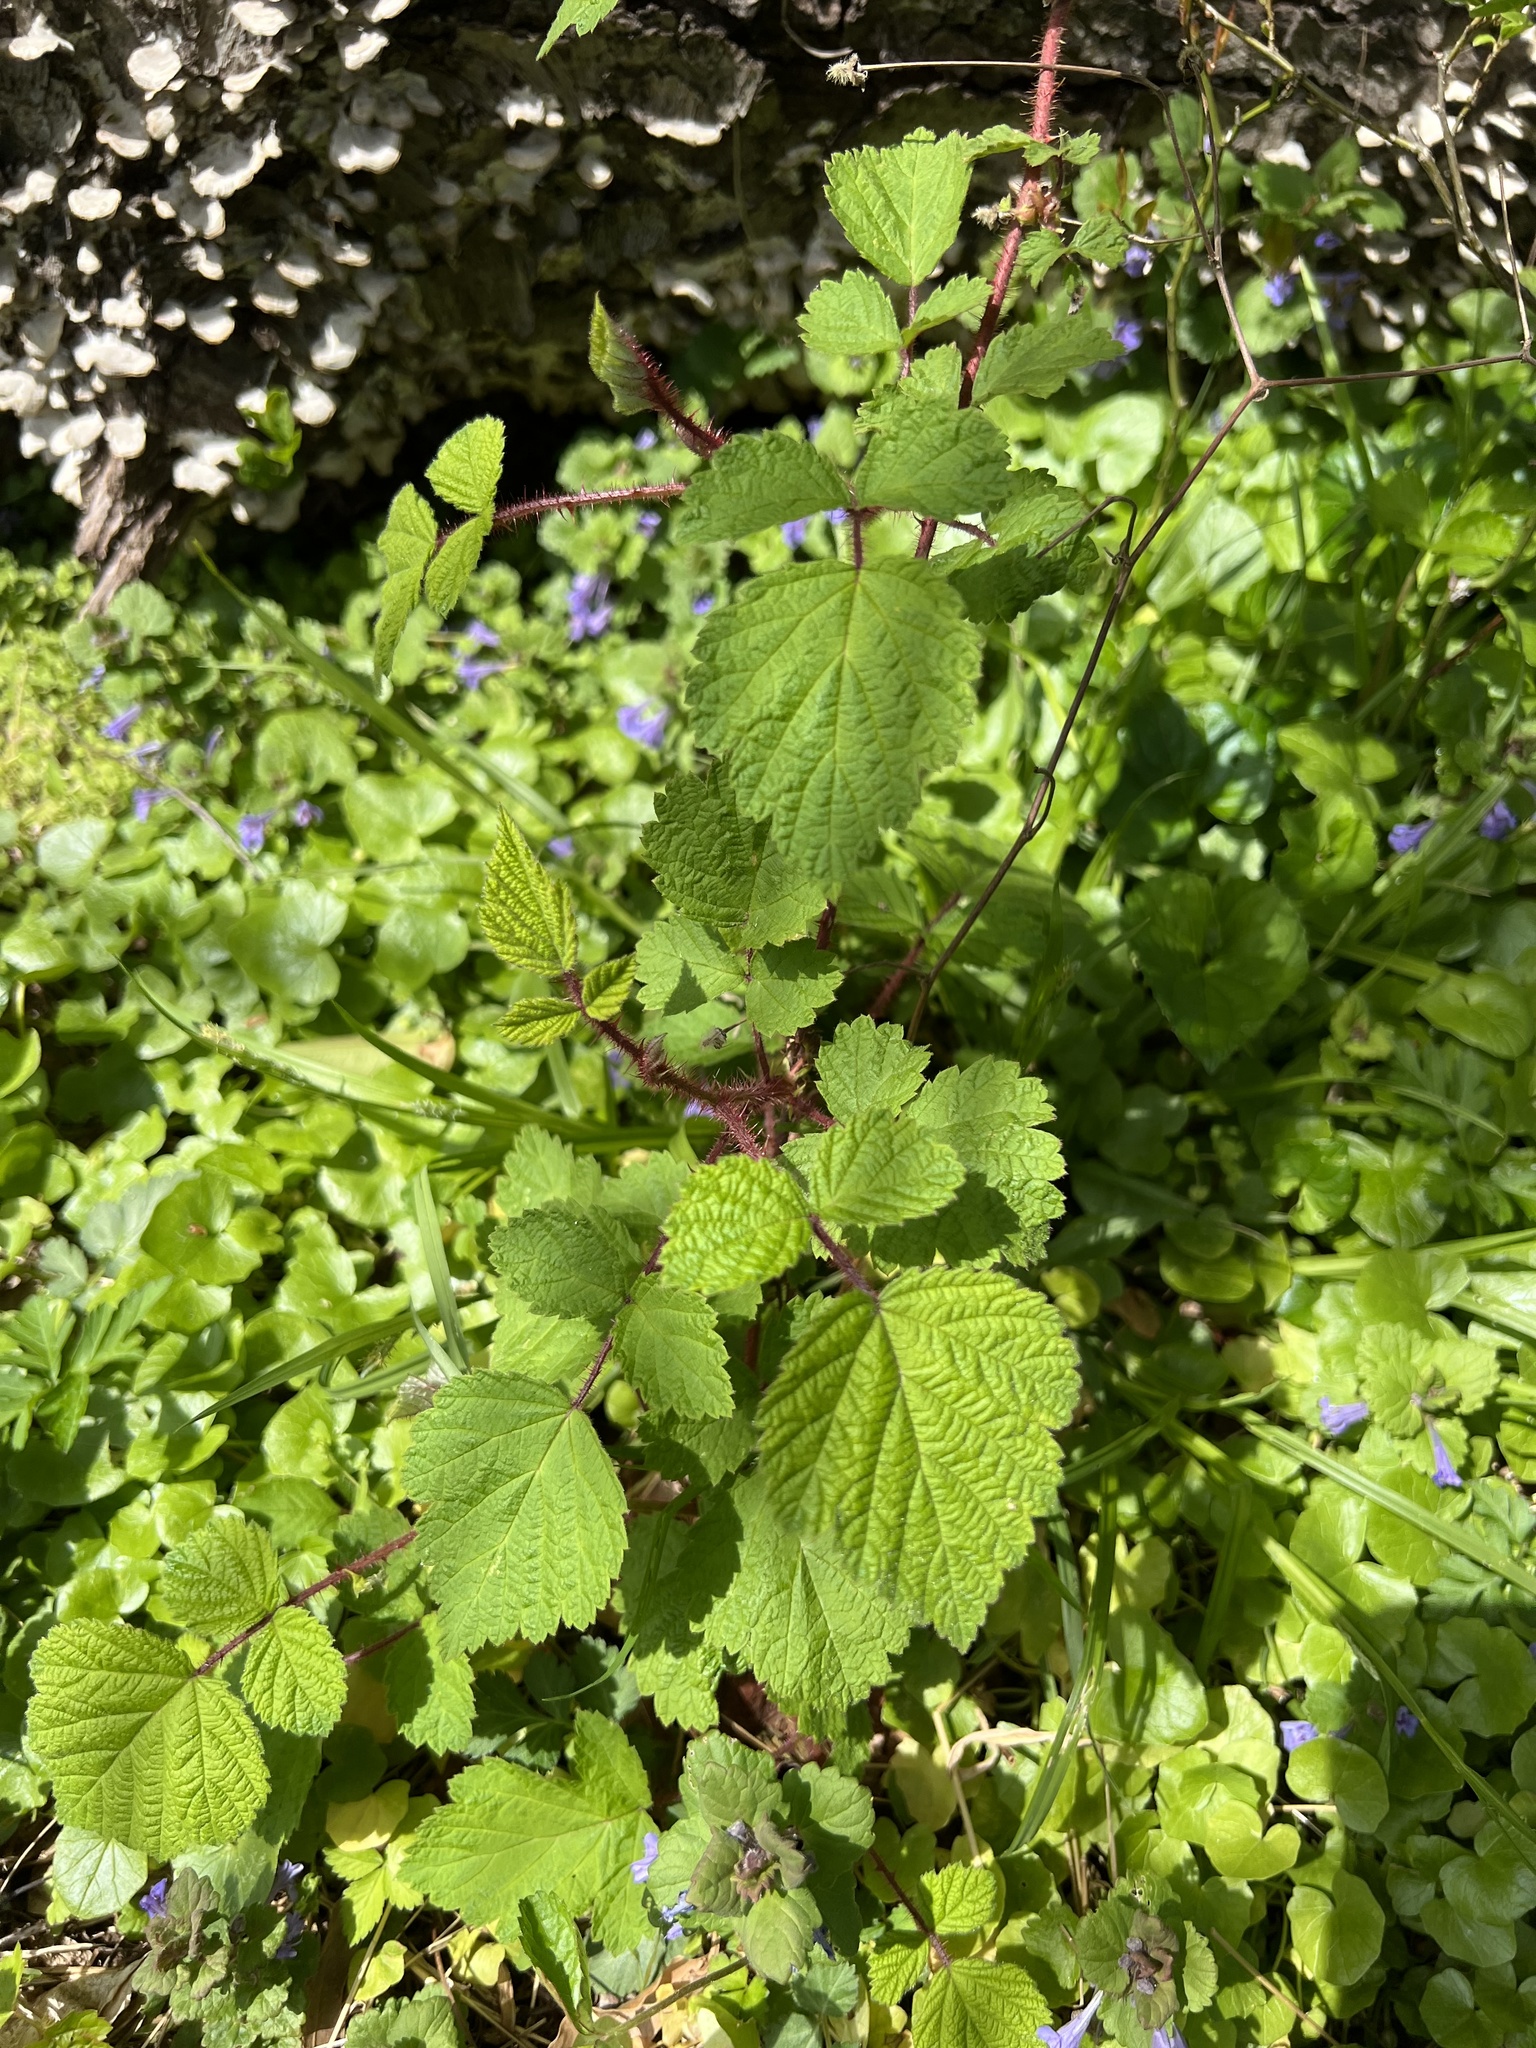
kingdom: Plantae
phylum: Tracheophyta
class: Magnoliopsida
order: Rosales
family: Rosaceae
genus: Rubus
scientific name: Rubus phoenicolasius
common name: Japanese wineberry
